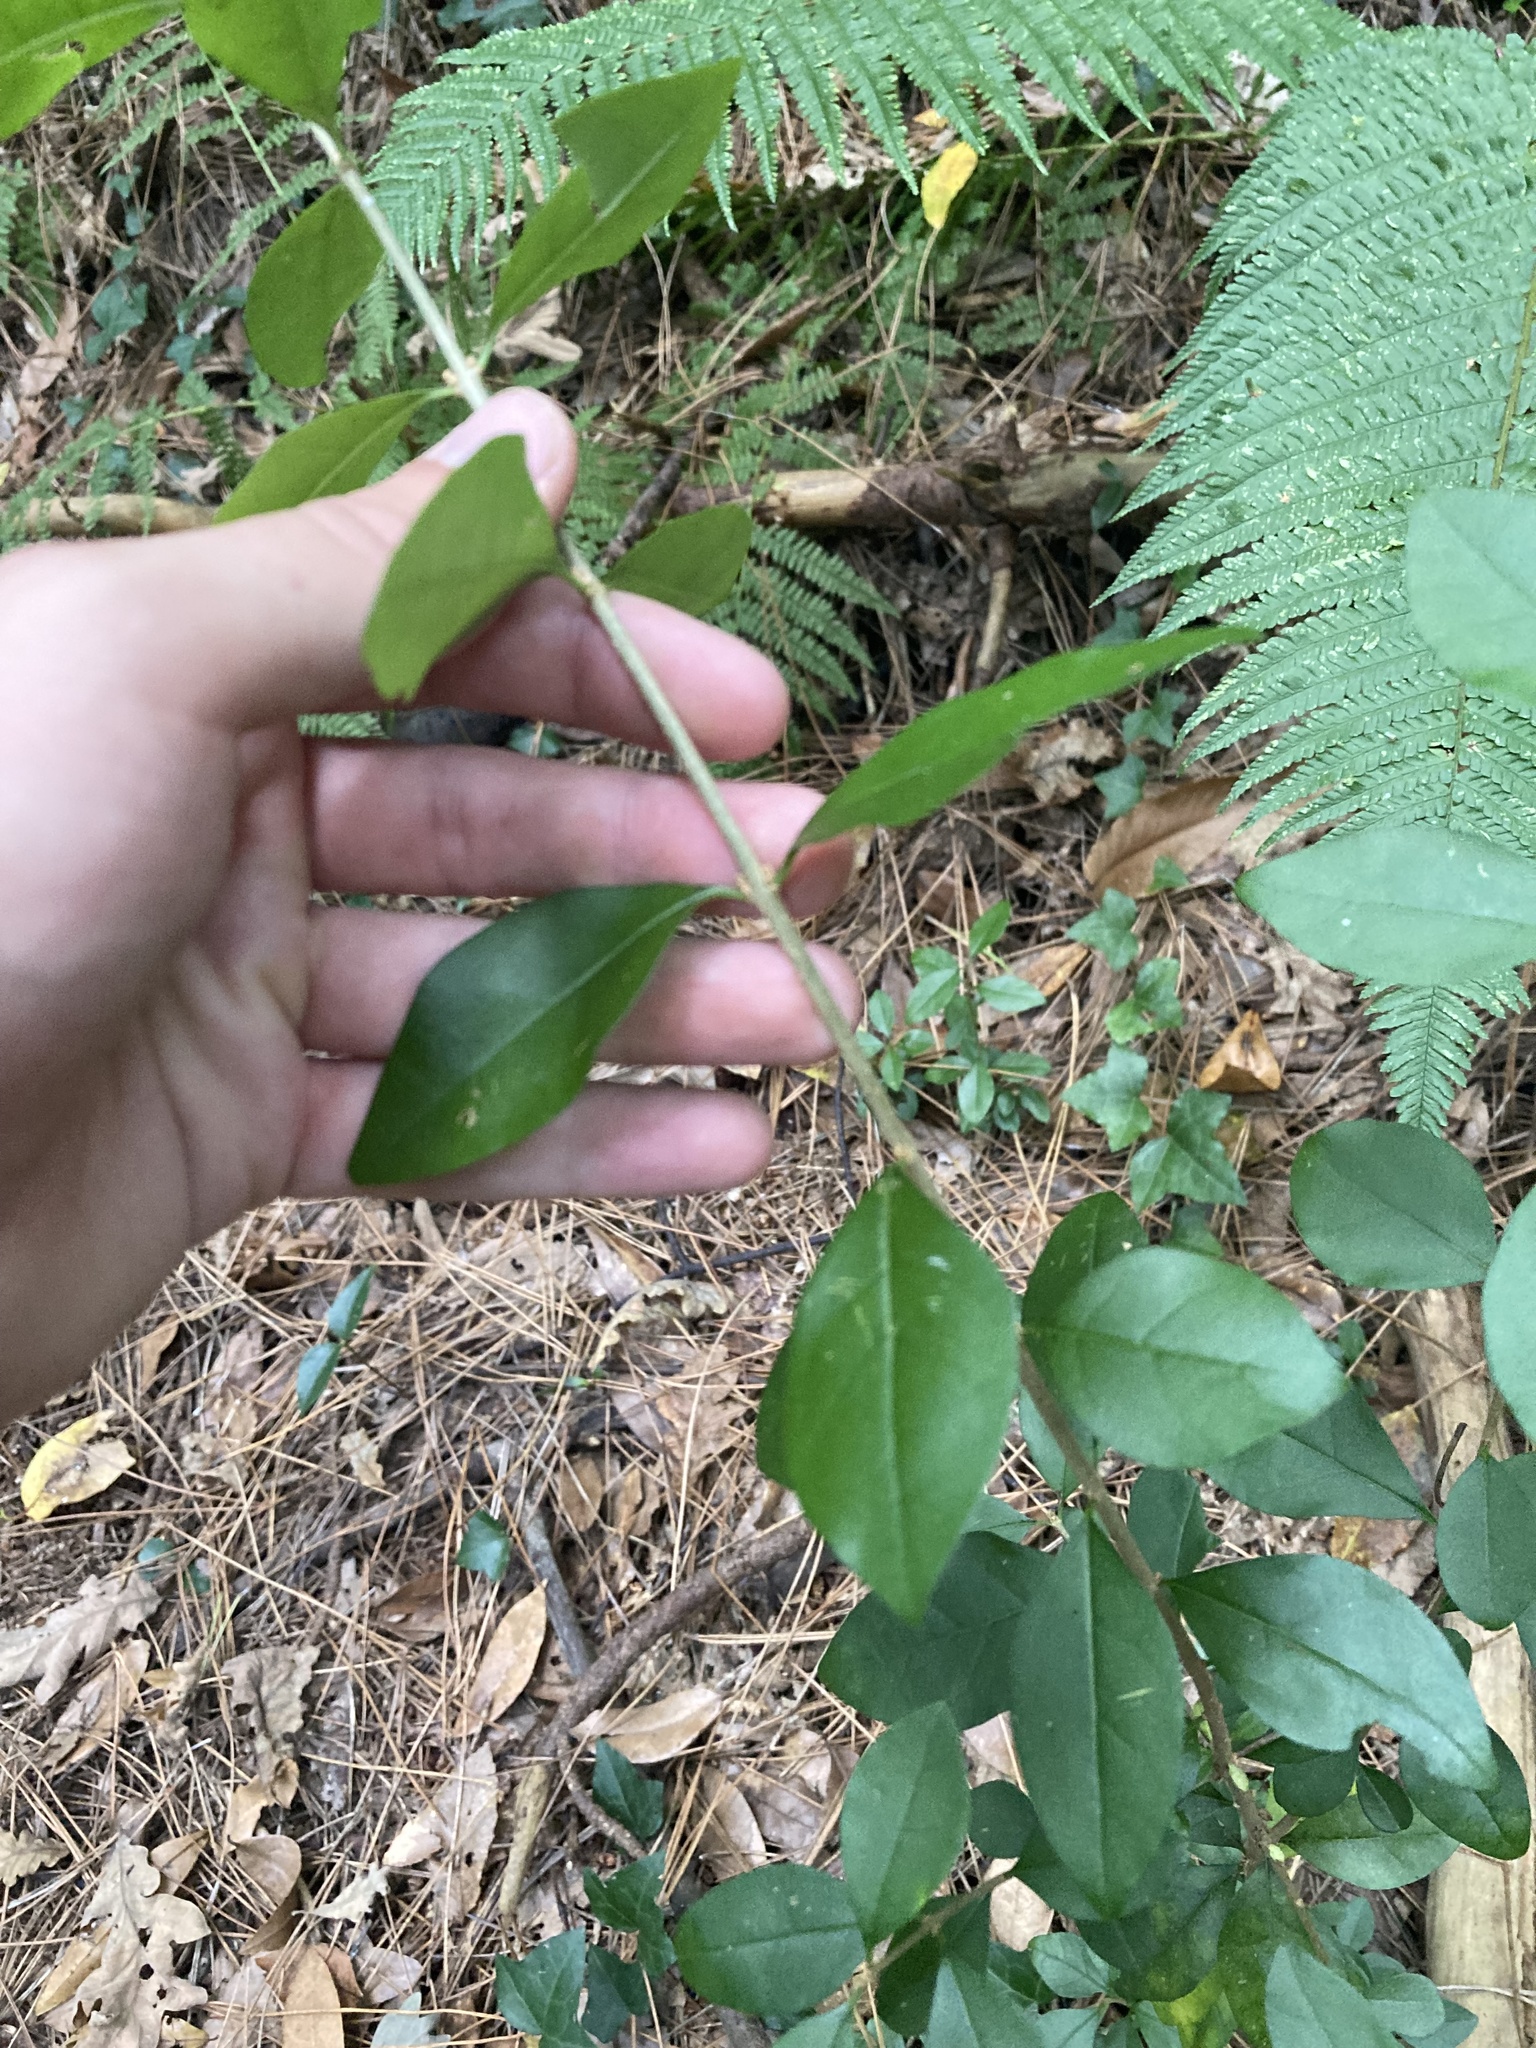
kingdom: Plantae
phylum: Tracheophyta
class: Magnoliopsida
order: Lamiales
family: Oleaceae
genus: Ligustrum
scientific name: Ligustrum lucidum
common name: Glossy privet
